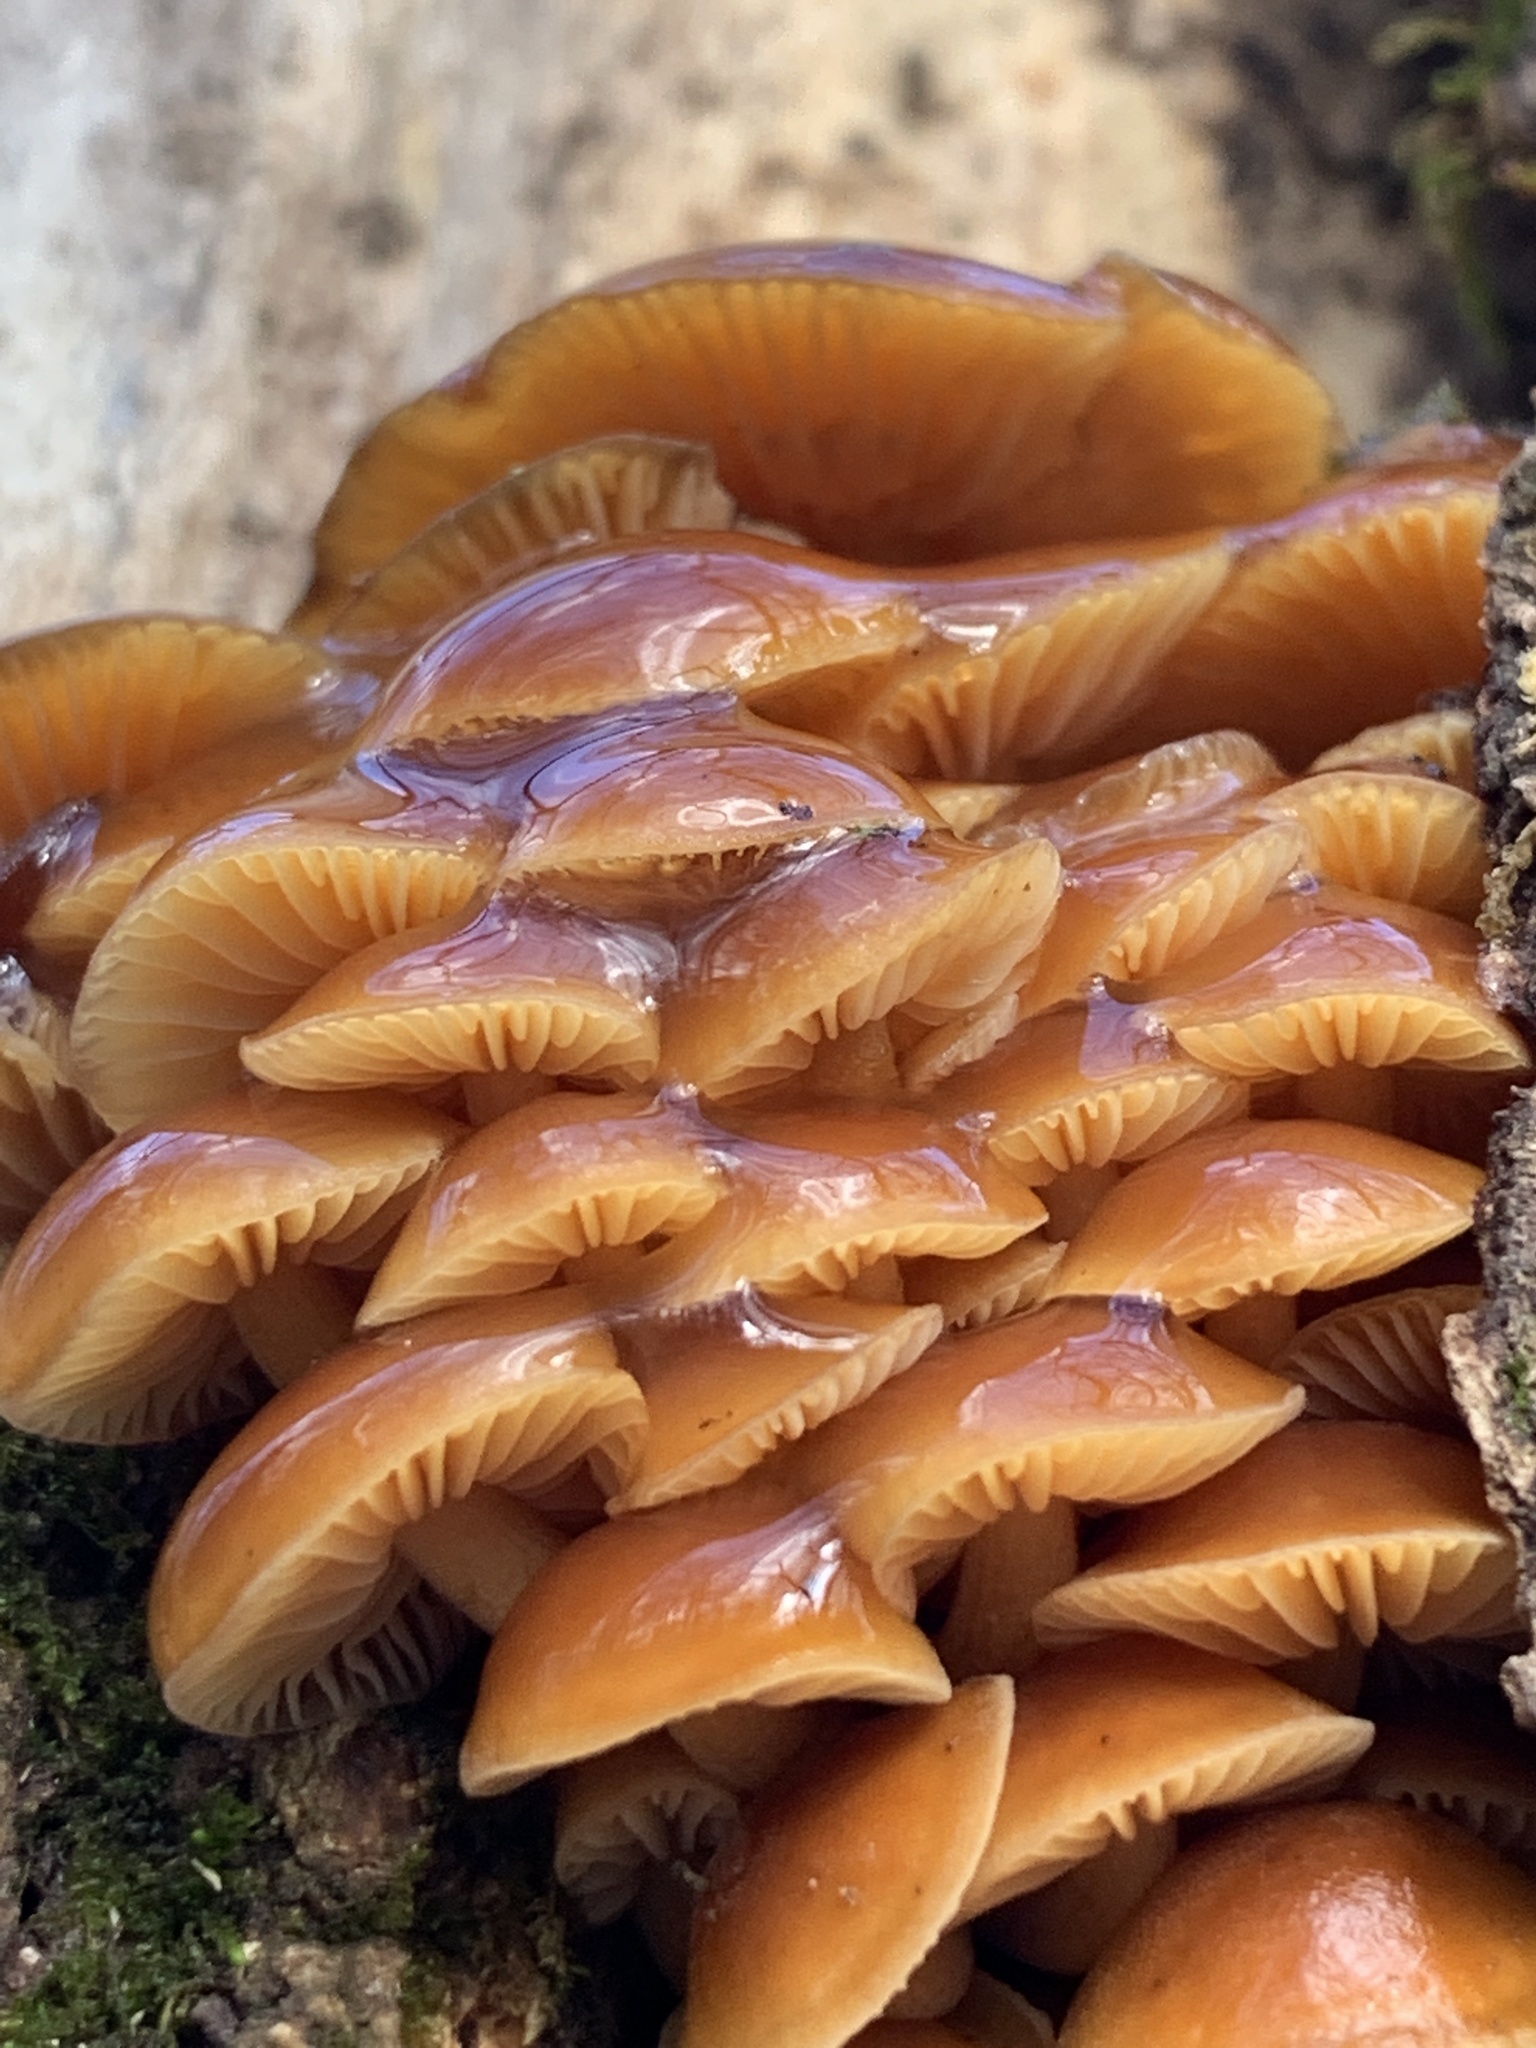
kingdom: Fungi
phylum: Basidiomycota
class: Agaricomycetes
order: Agaricales
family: Physalacriaceae
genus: Flammulina
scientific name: Flammulina velutipes
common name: Velvet shank
